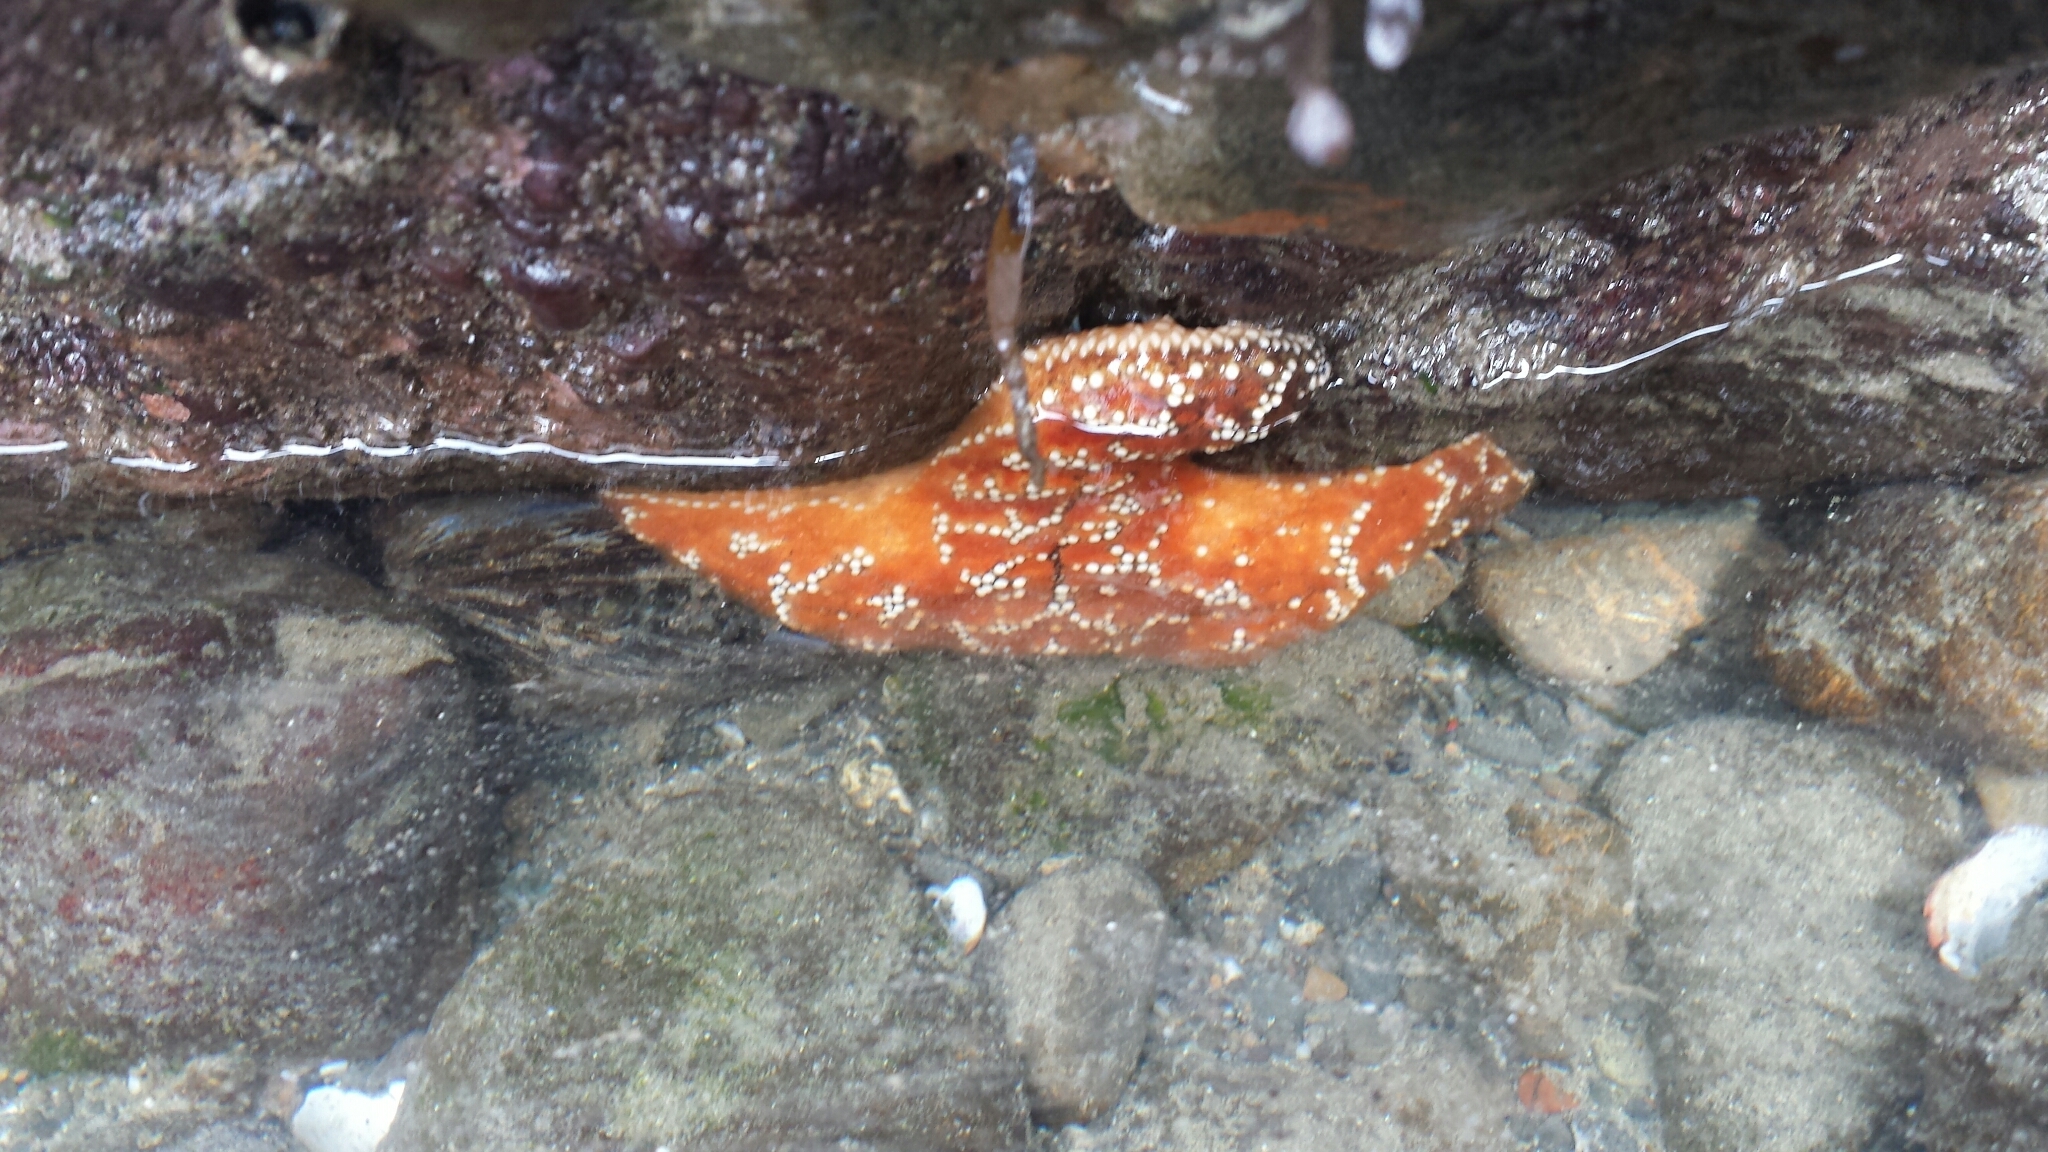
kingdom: Animalia
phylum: Echinodermata
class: Asteroidea
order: Forcipulatida
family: Asteriidae
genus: Pisaster
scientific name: Pisaster ochraceus
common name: Ochre stars
